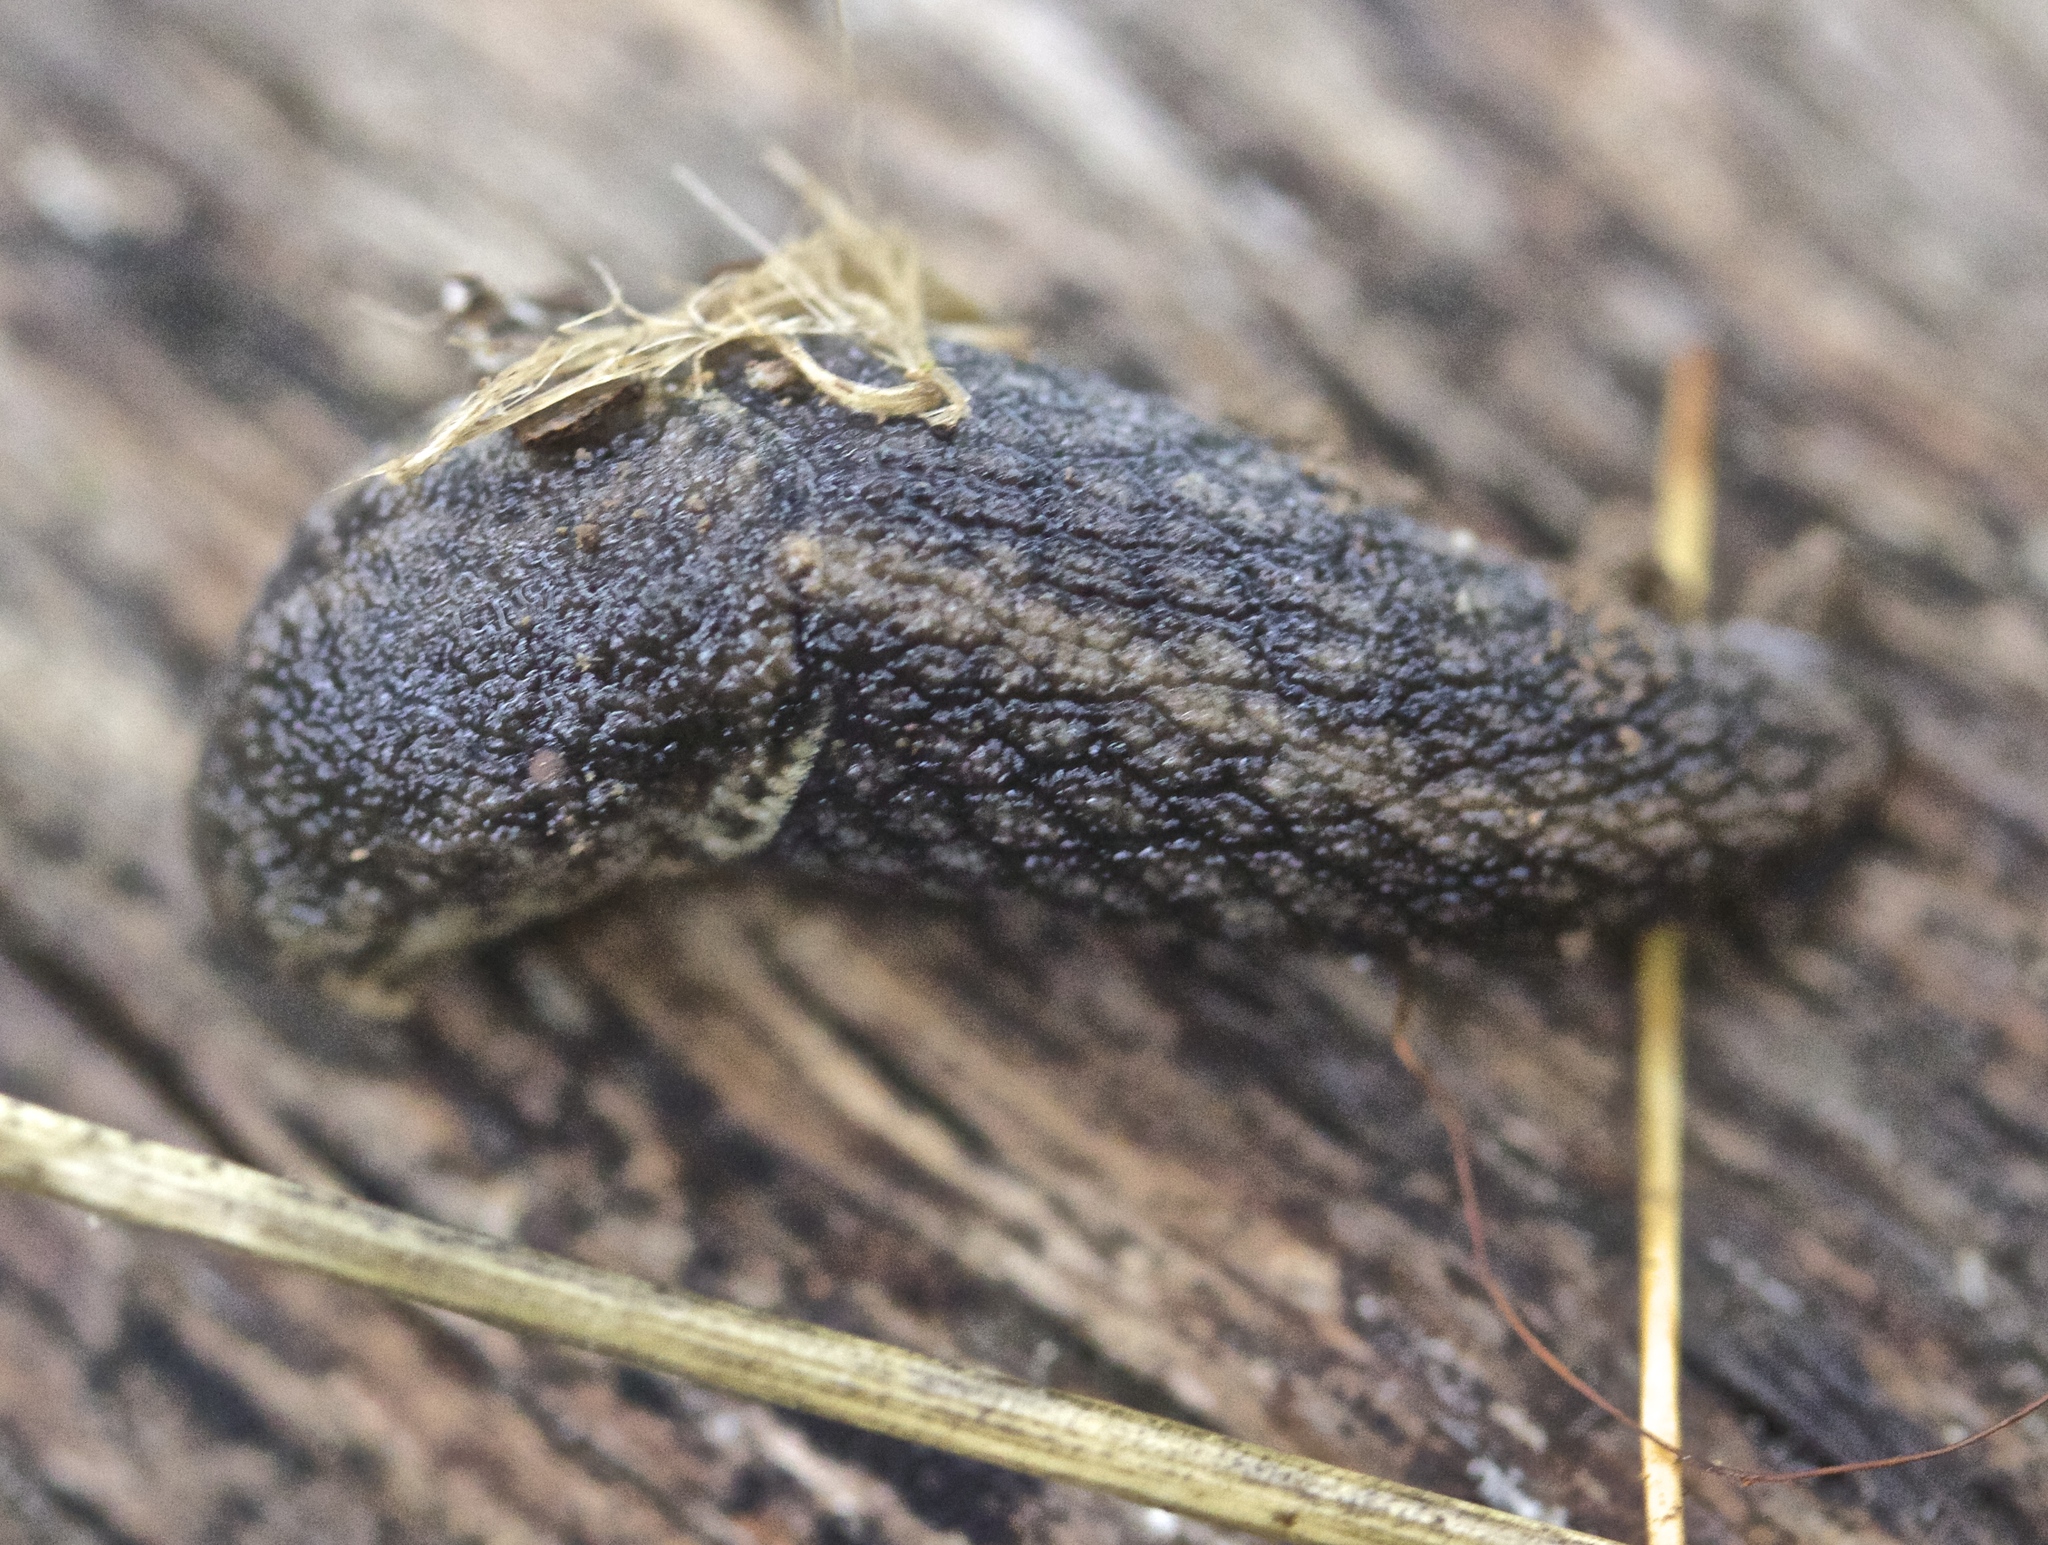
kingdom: Animalia
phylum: Mollusca
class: Gastropoda
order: Stylommatophora
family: Ariolimacidae
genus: Prophysaon
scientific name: Prophysaon andersonii
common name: Reticulate taildropper
